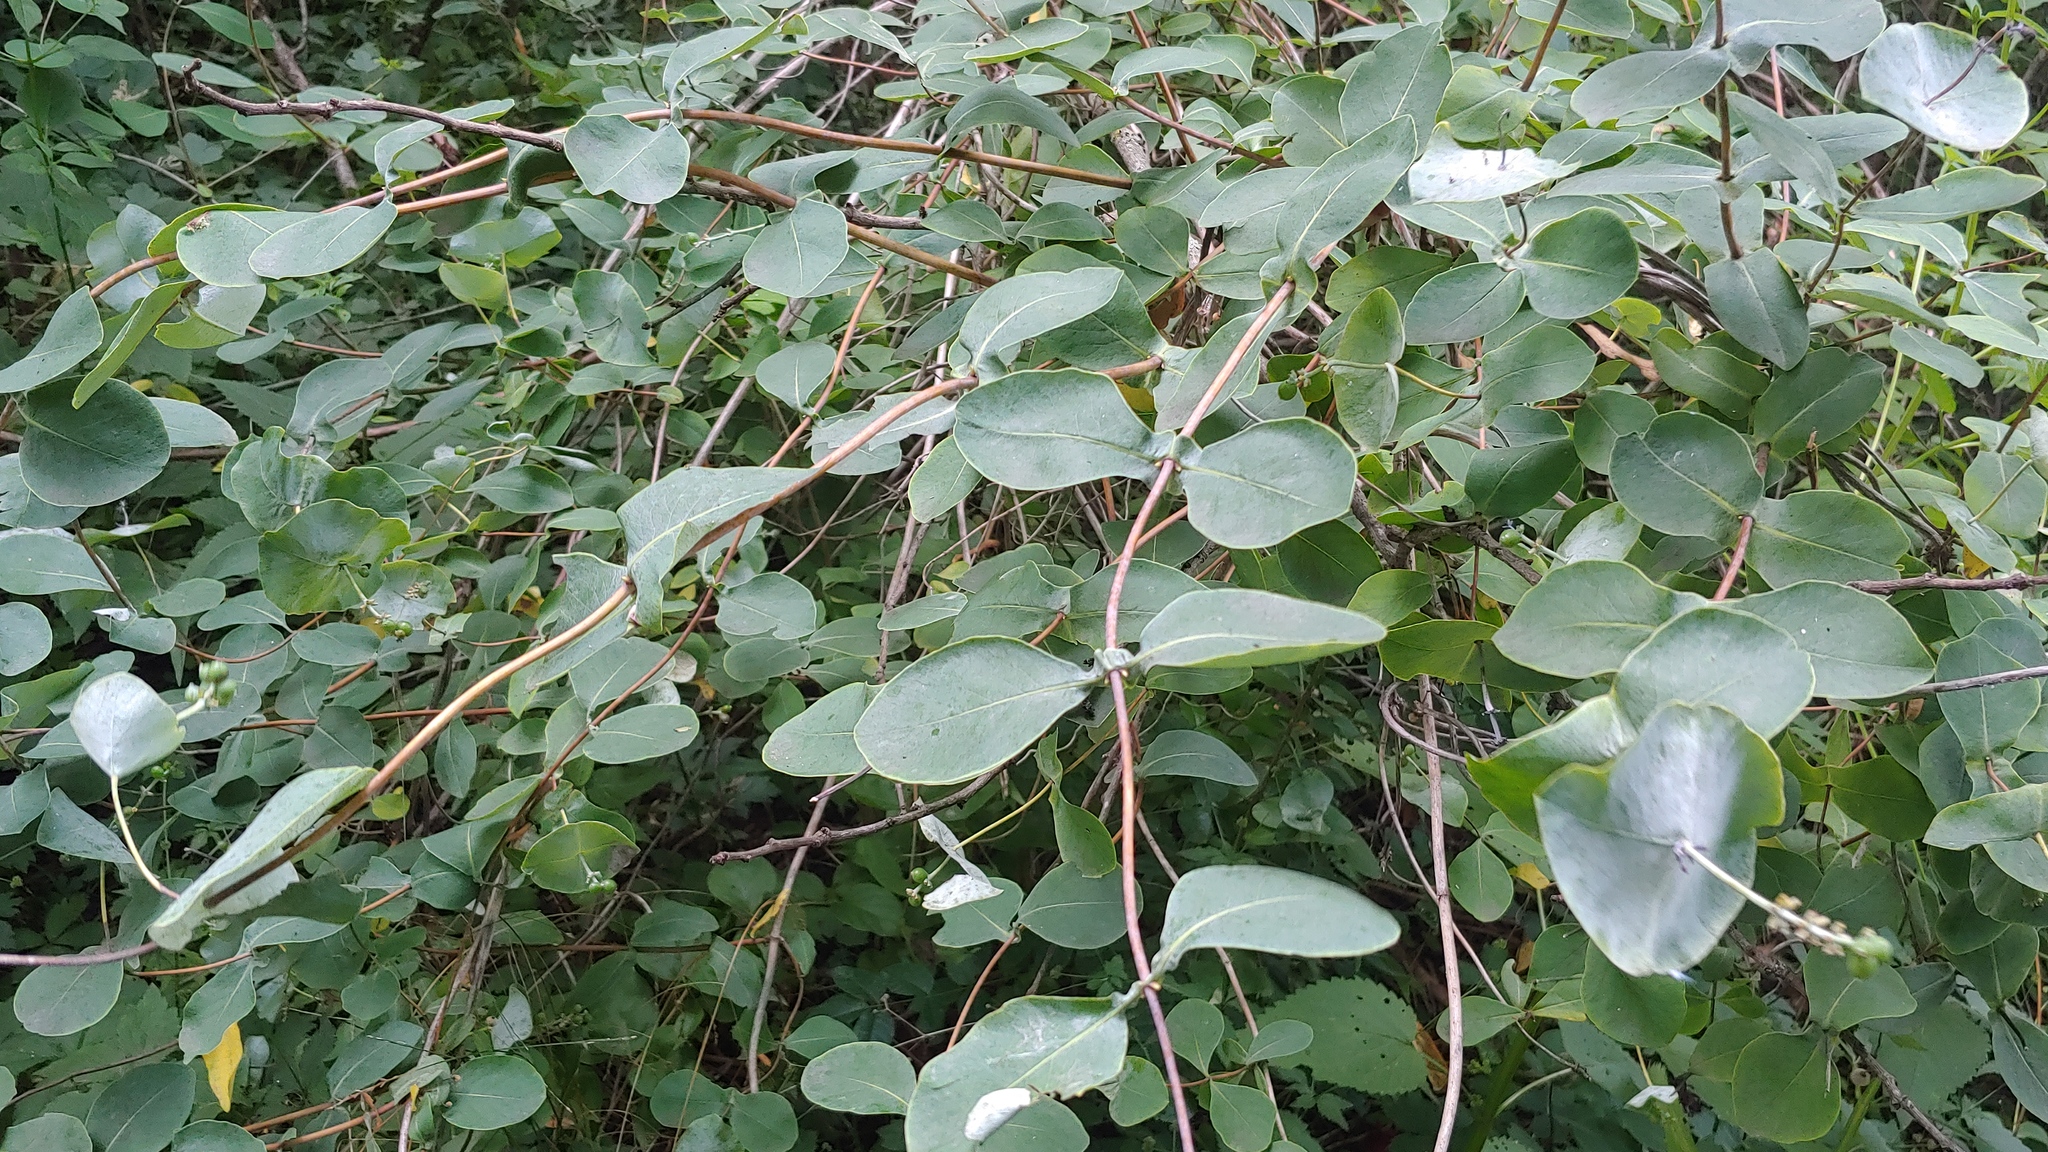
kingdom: Plantae
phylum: Tracheophyta
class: Magnoliopsida
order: Dipsacales
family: Caprifoliaceae
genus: Lonicera
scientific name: Lonicera reticulata
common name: Grape honeysuckle
